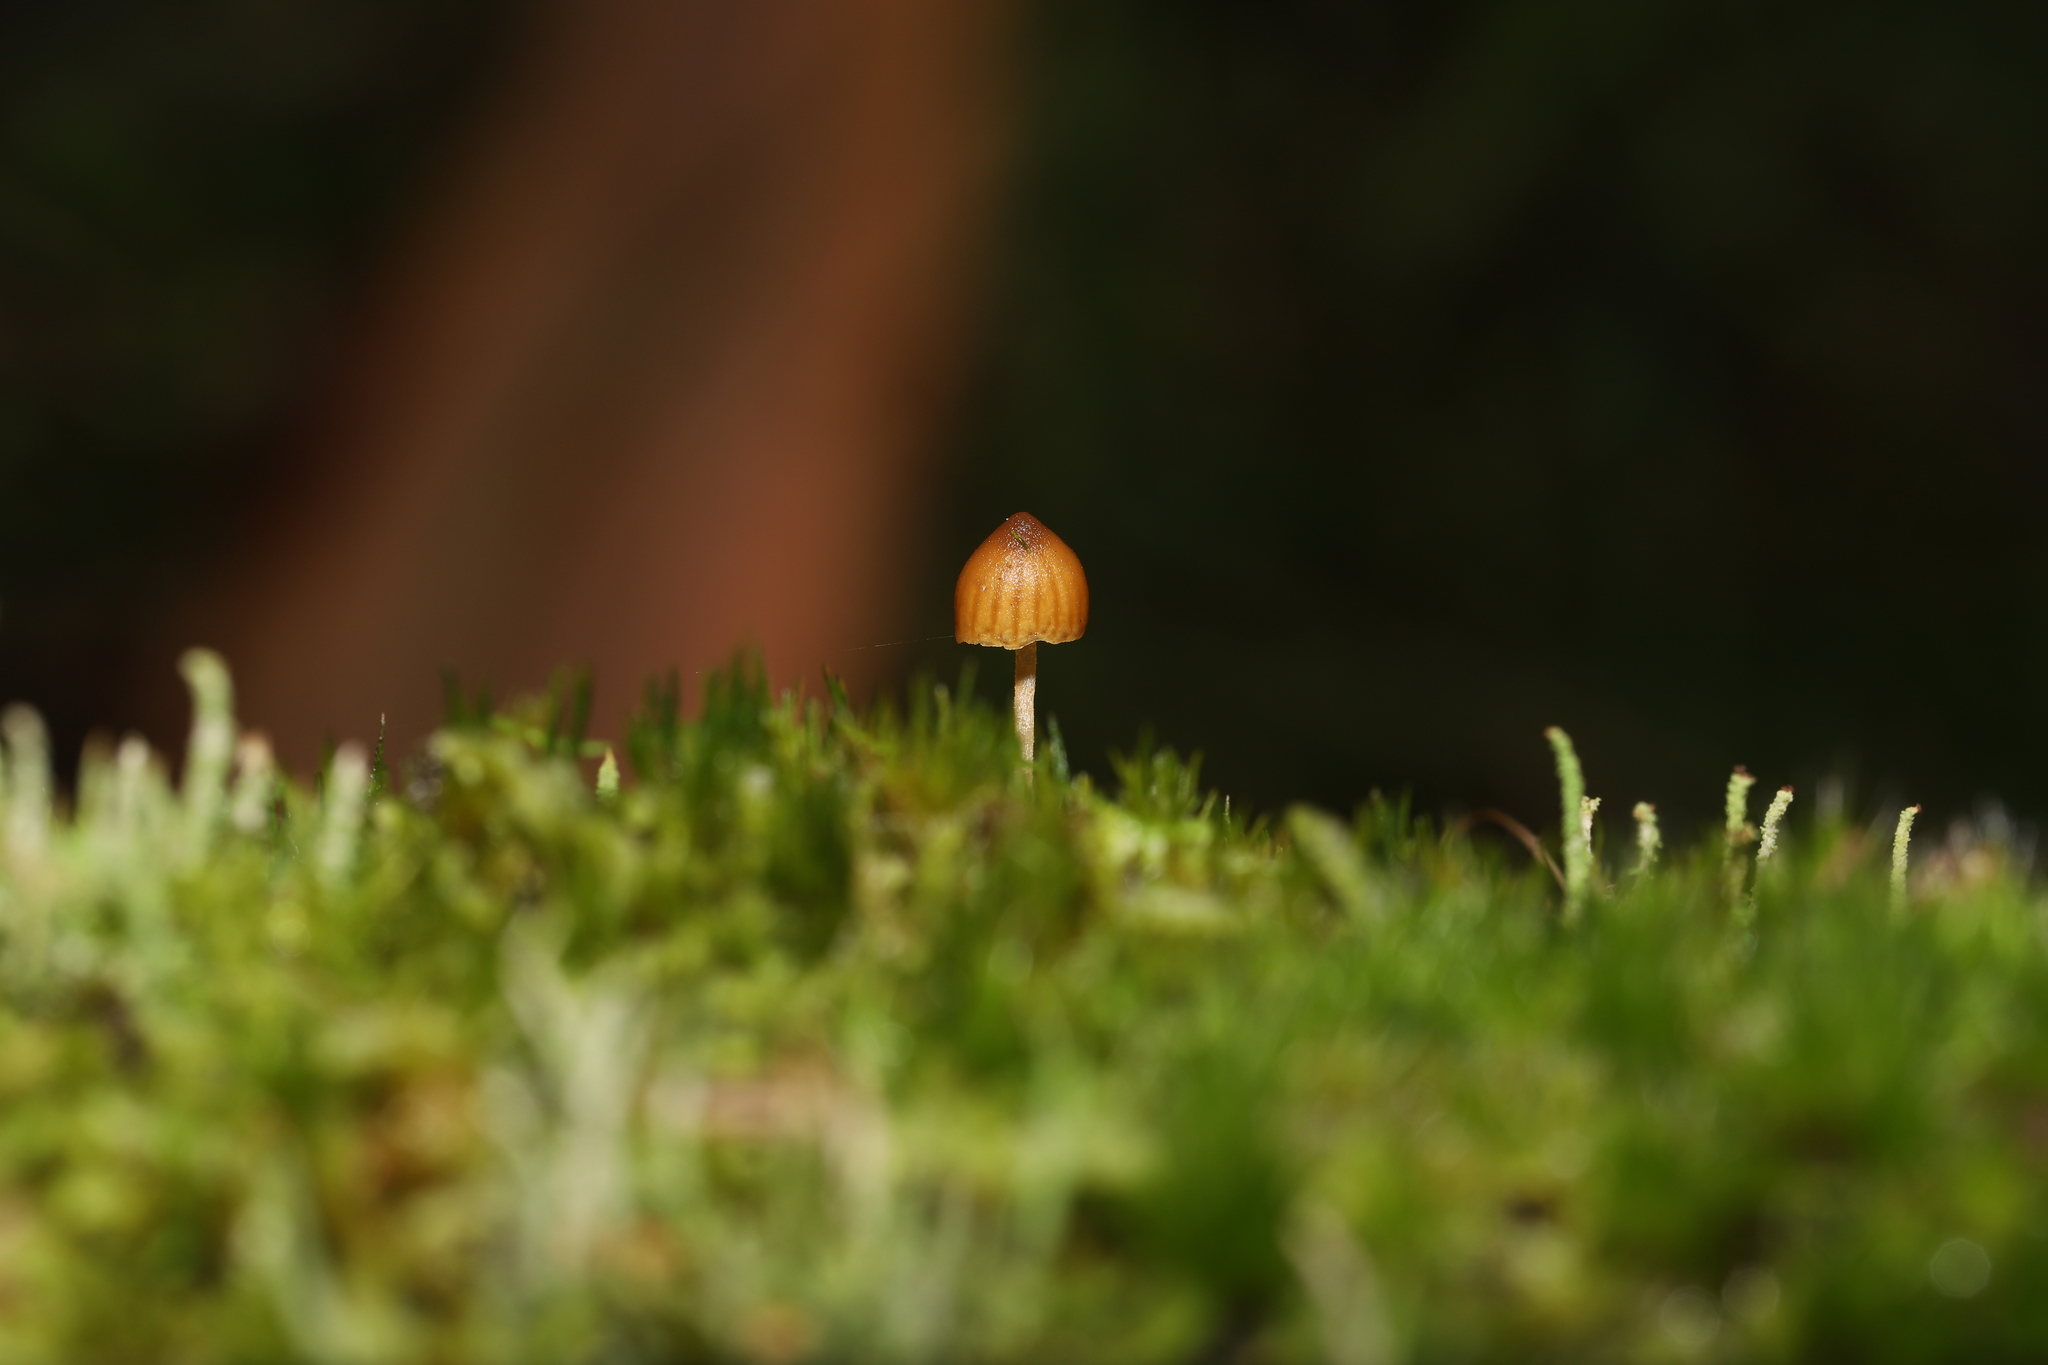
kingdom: Fungi
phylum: Basidiomycota
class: Agaricomycetes
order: Agaricales
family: Hymenogastraceae
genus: Galerina
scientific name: Galerina hypnorum
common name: Moss bell
